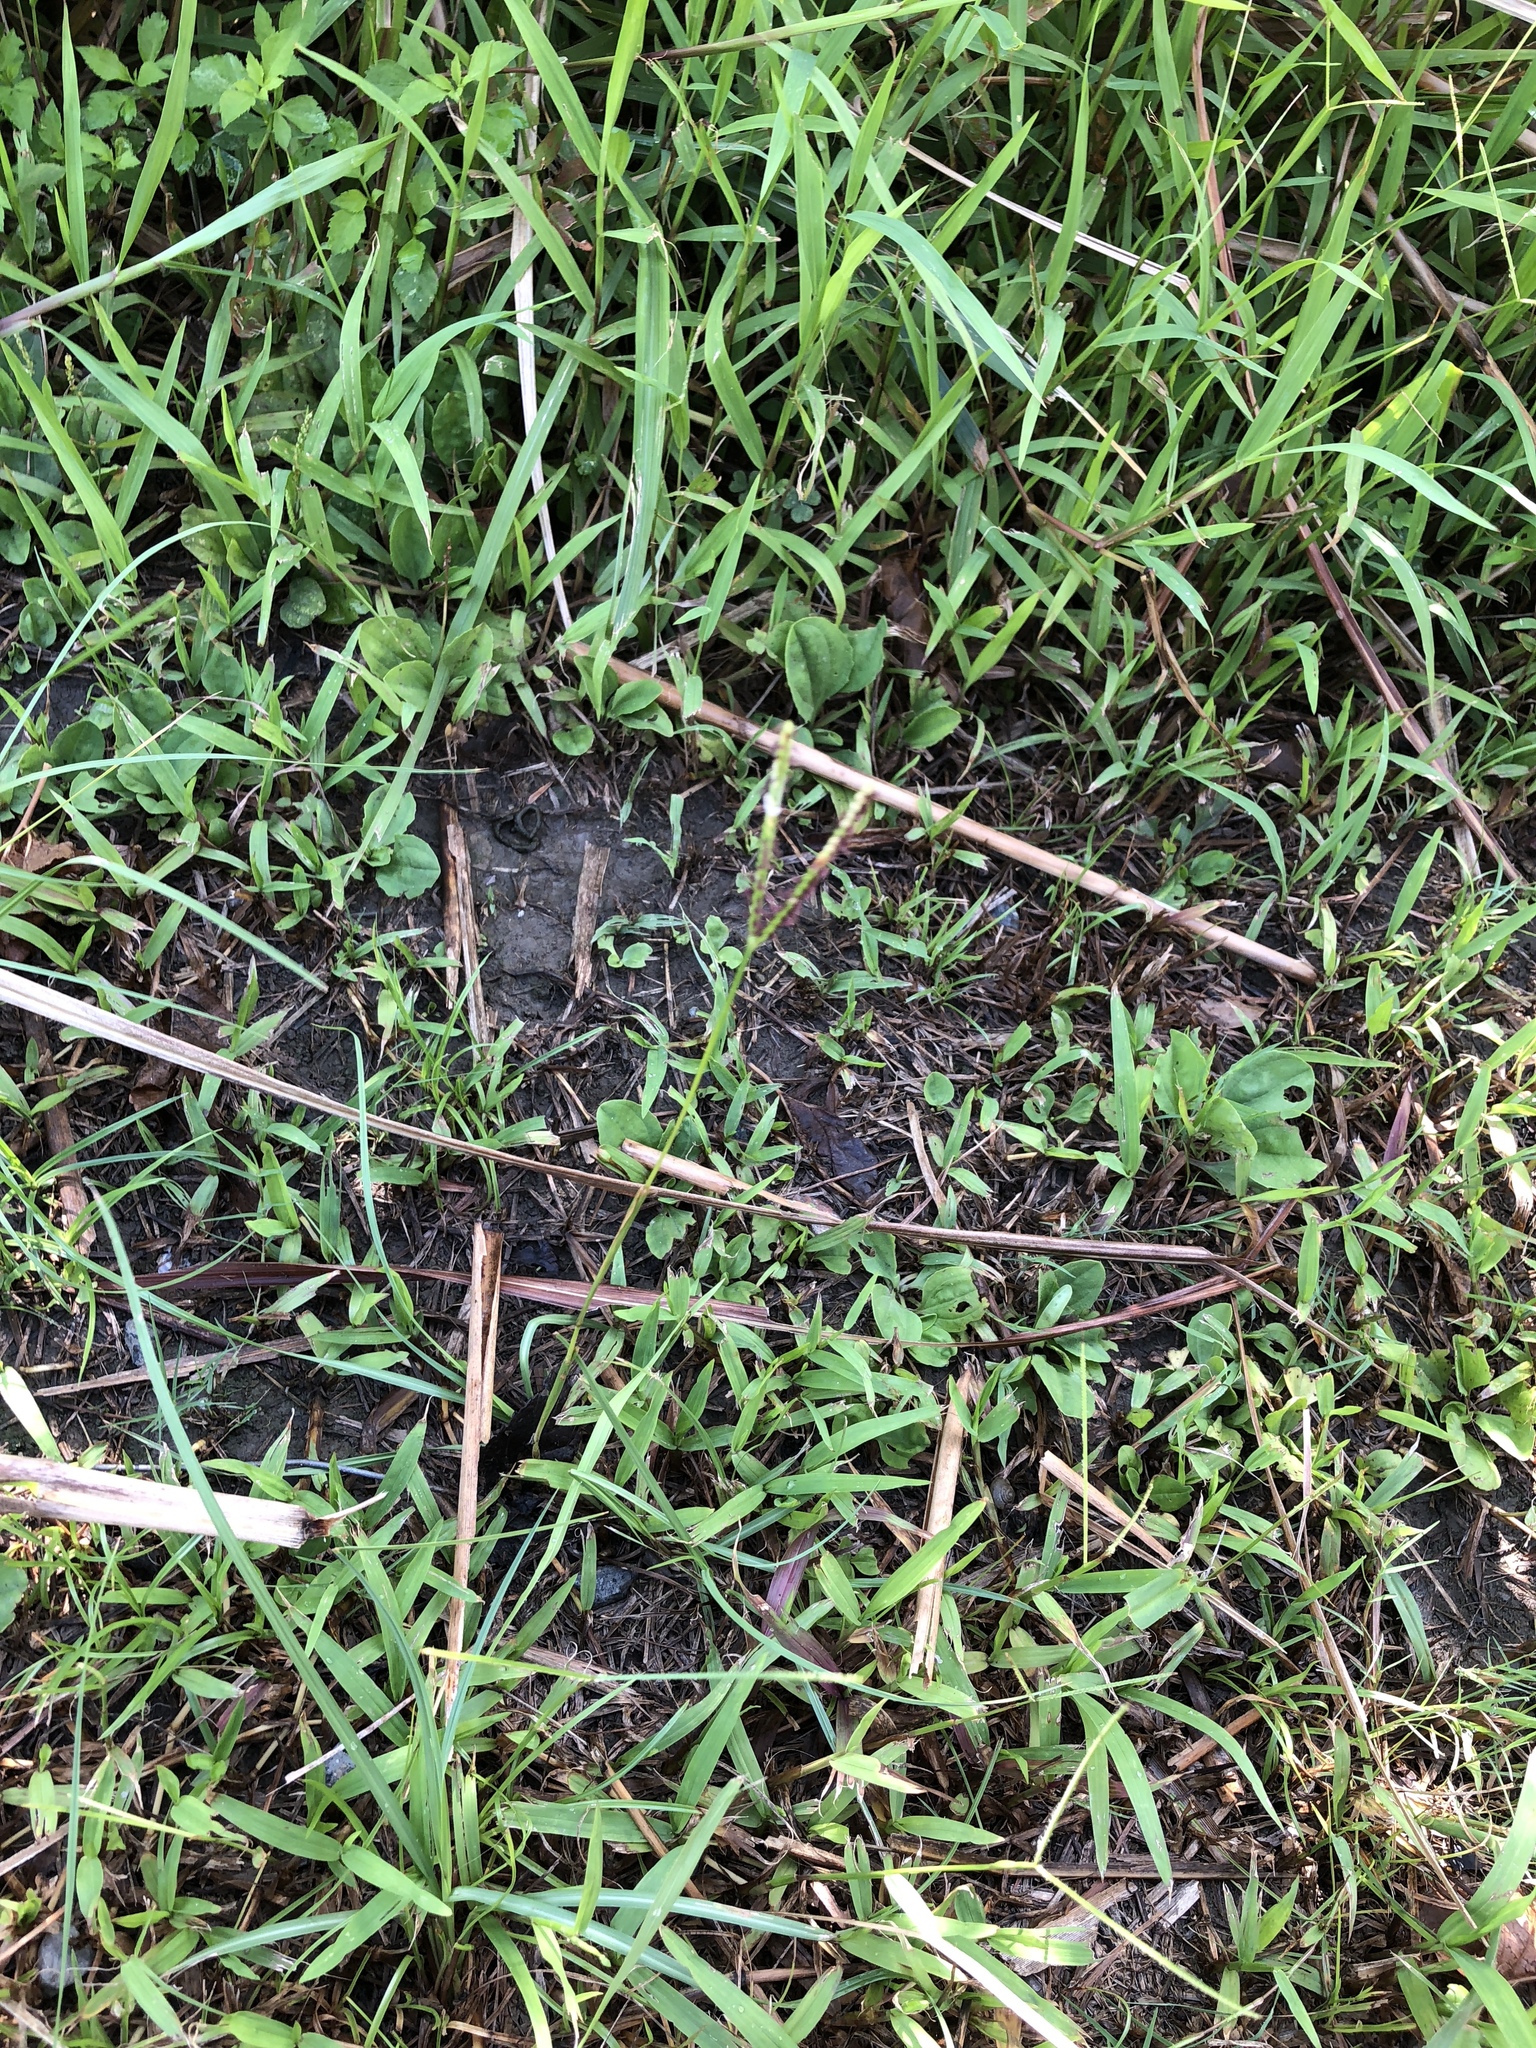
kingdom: Plantae
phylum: Tracheophyta
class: Liliopsida
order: Poales
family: Poaceae
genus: Paspalum
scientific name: Paspalum conjugatum
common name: Hilograss
